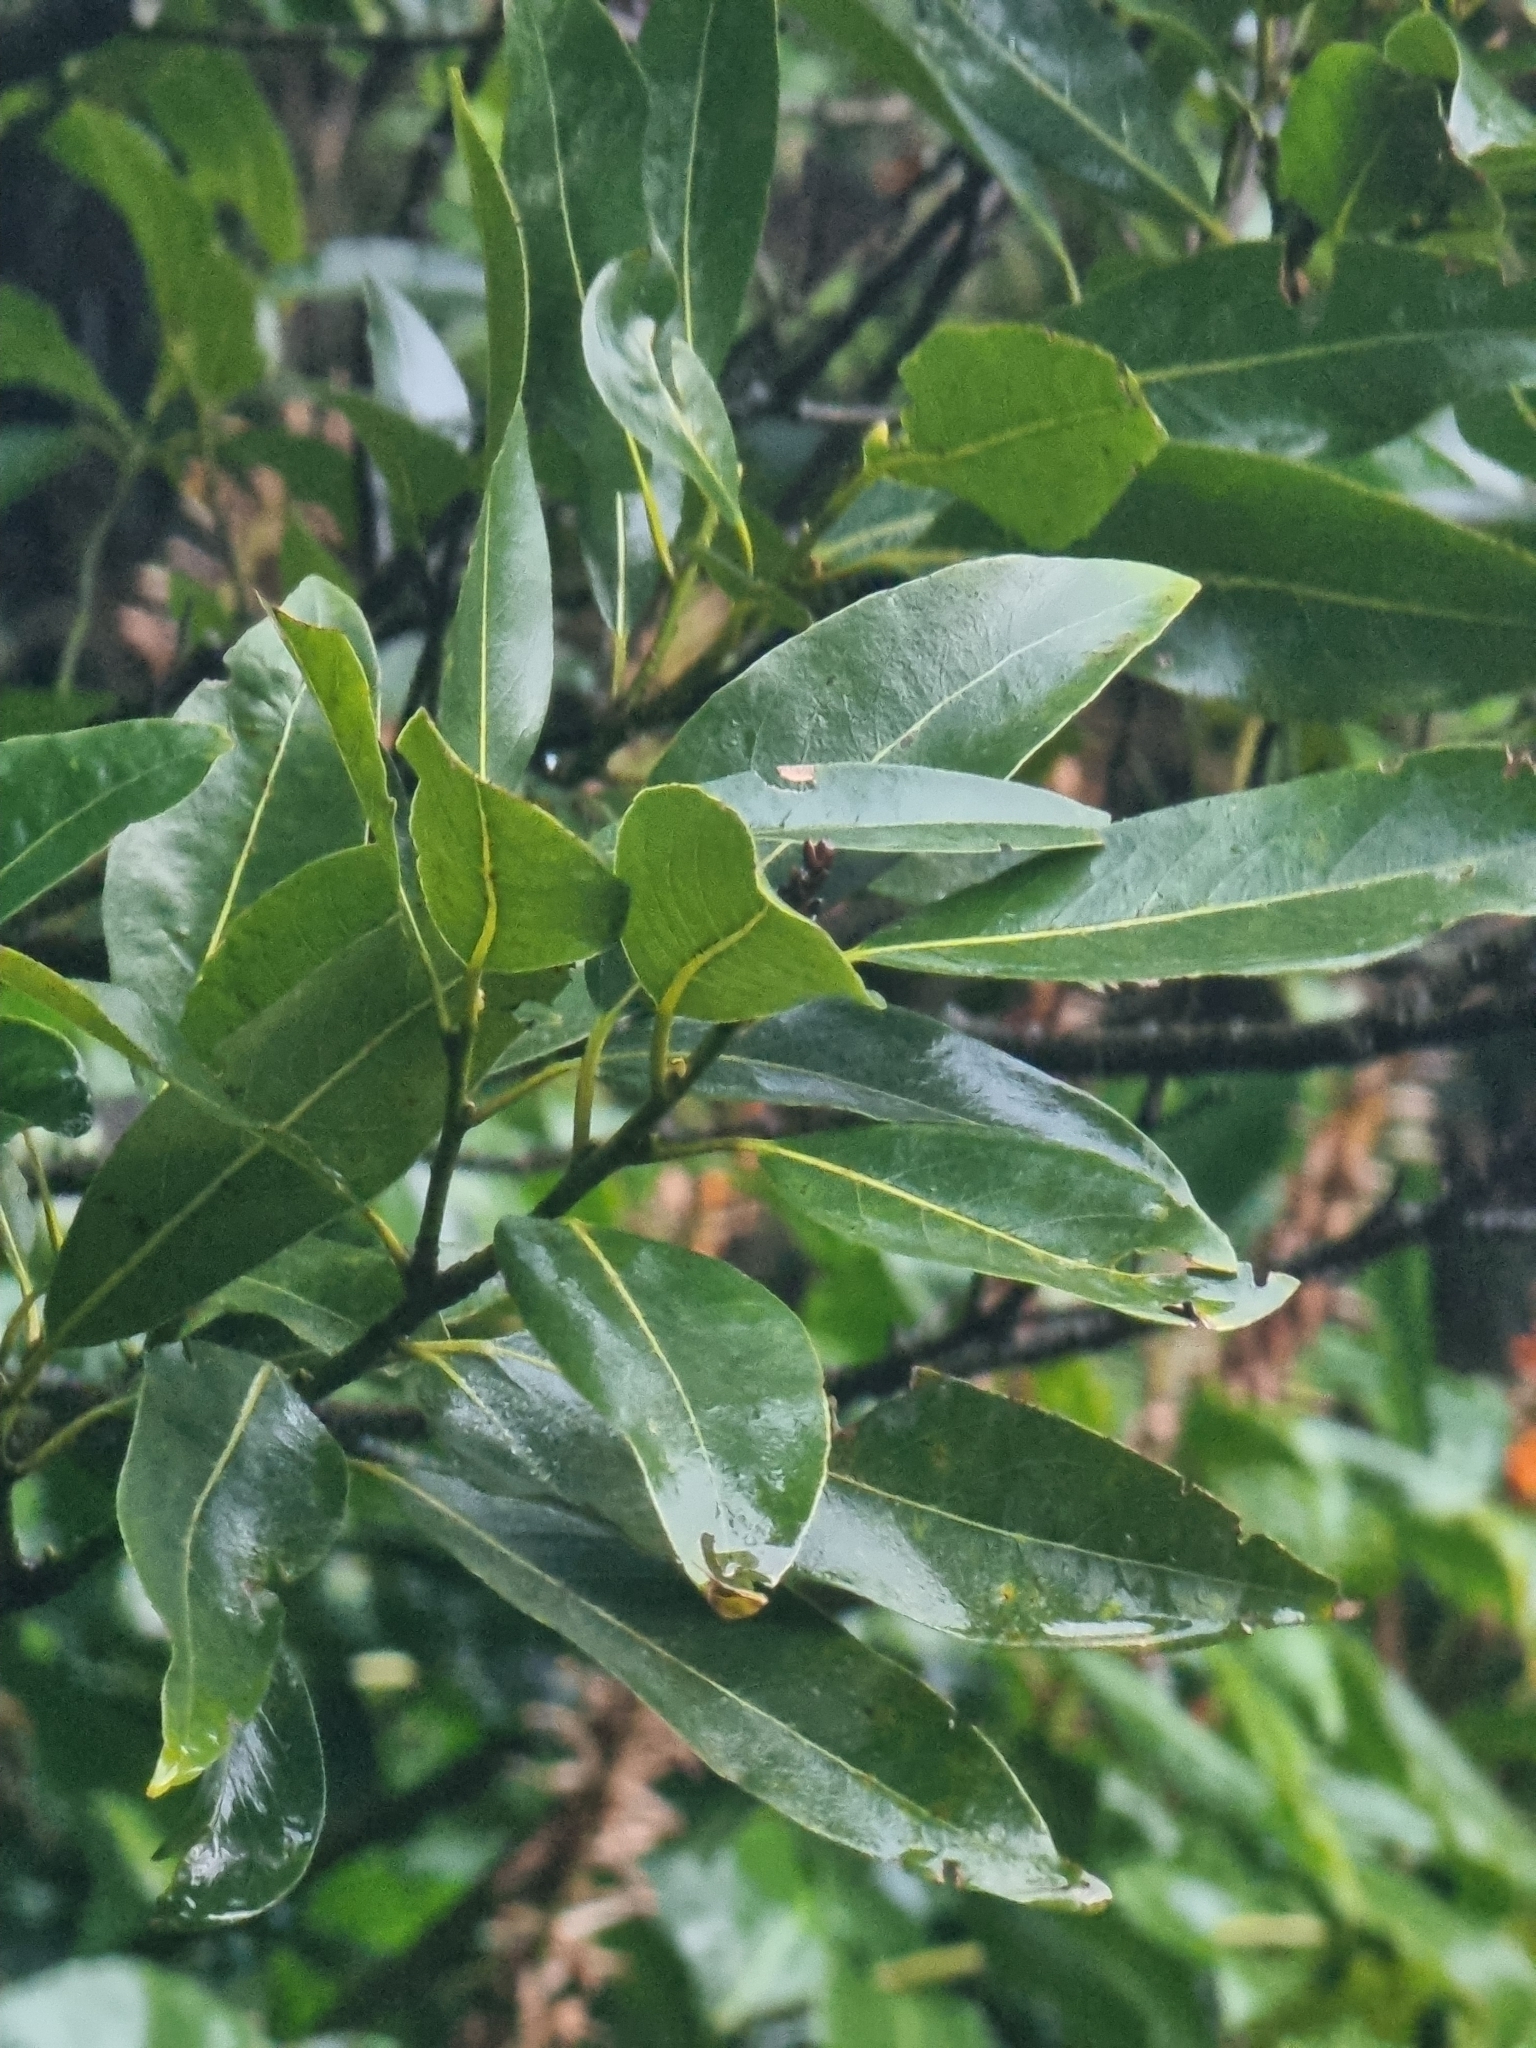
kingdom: Plantae
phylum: Tracheophyta
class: Magnoliopsida
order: Laurales
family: Lauraceae
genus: Laurus
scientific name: Laurus novocanariensis
